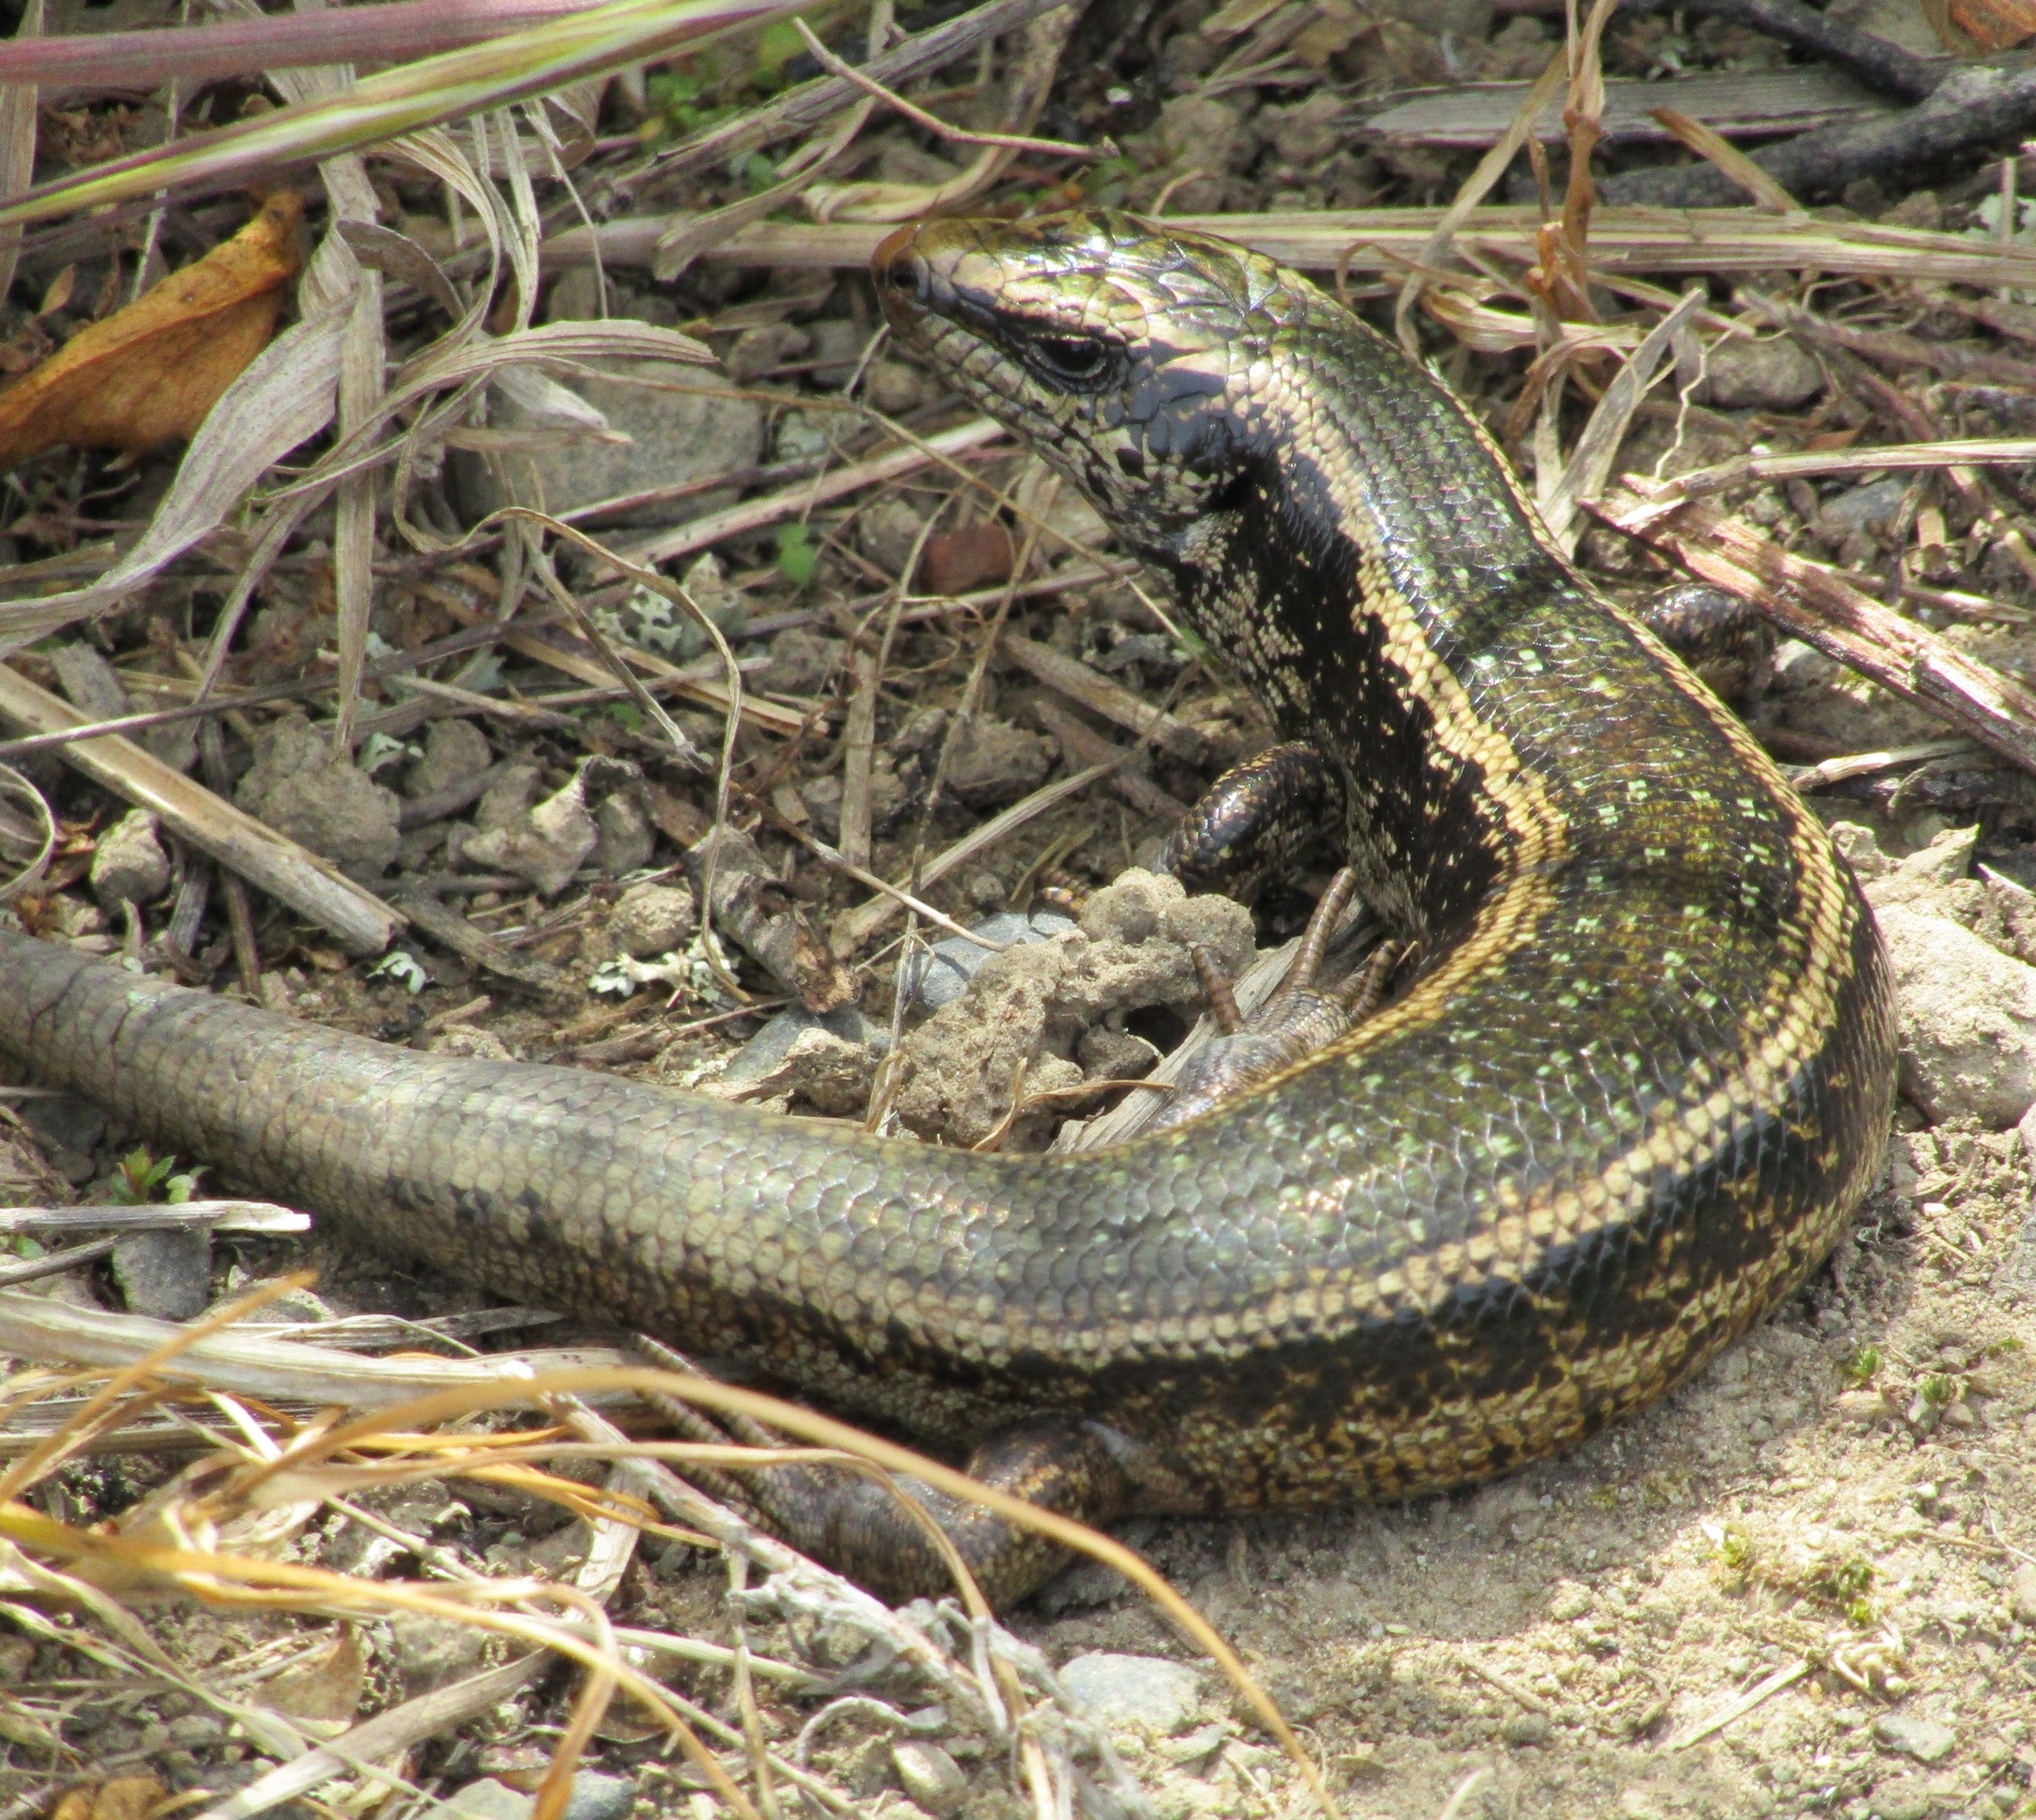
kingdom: Animalia
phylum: Chordata
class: Squamata
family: Scincidae
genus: Oligosoma
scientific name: Oligosoma kokowai
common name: Northern spotted skink
